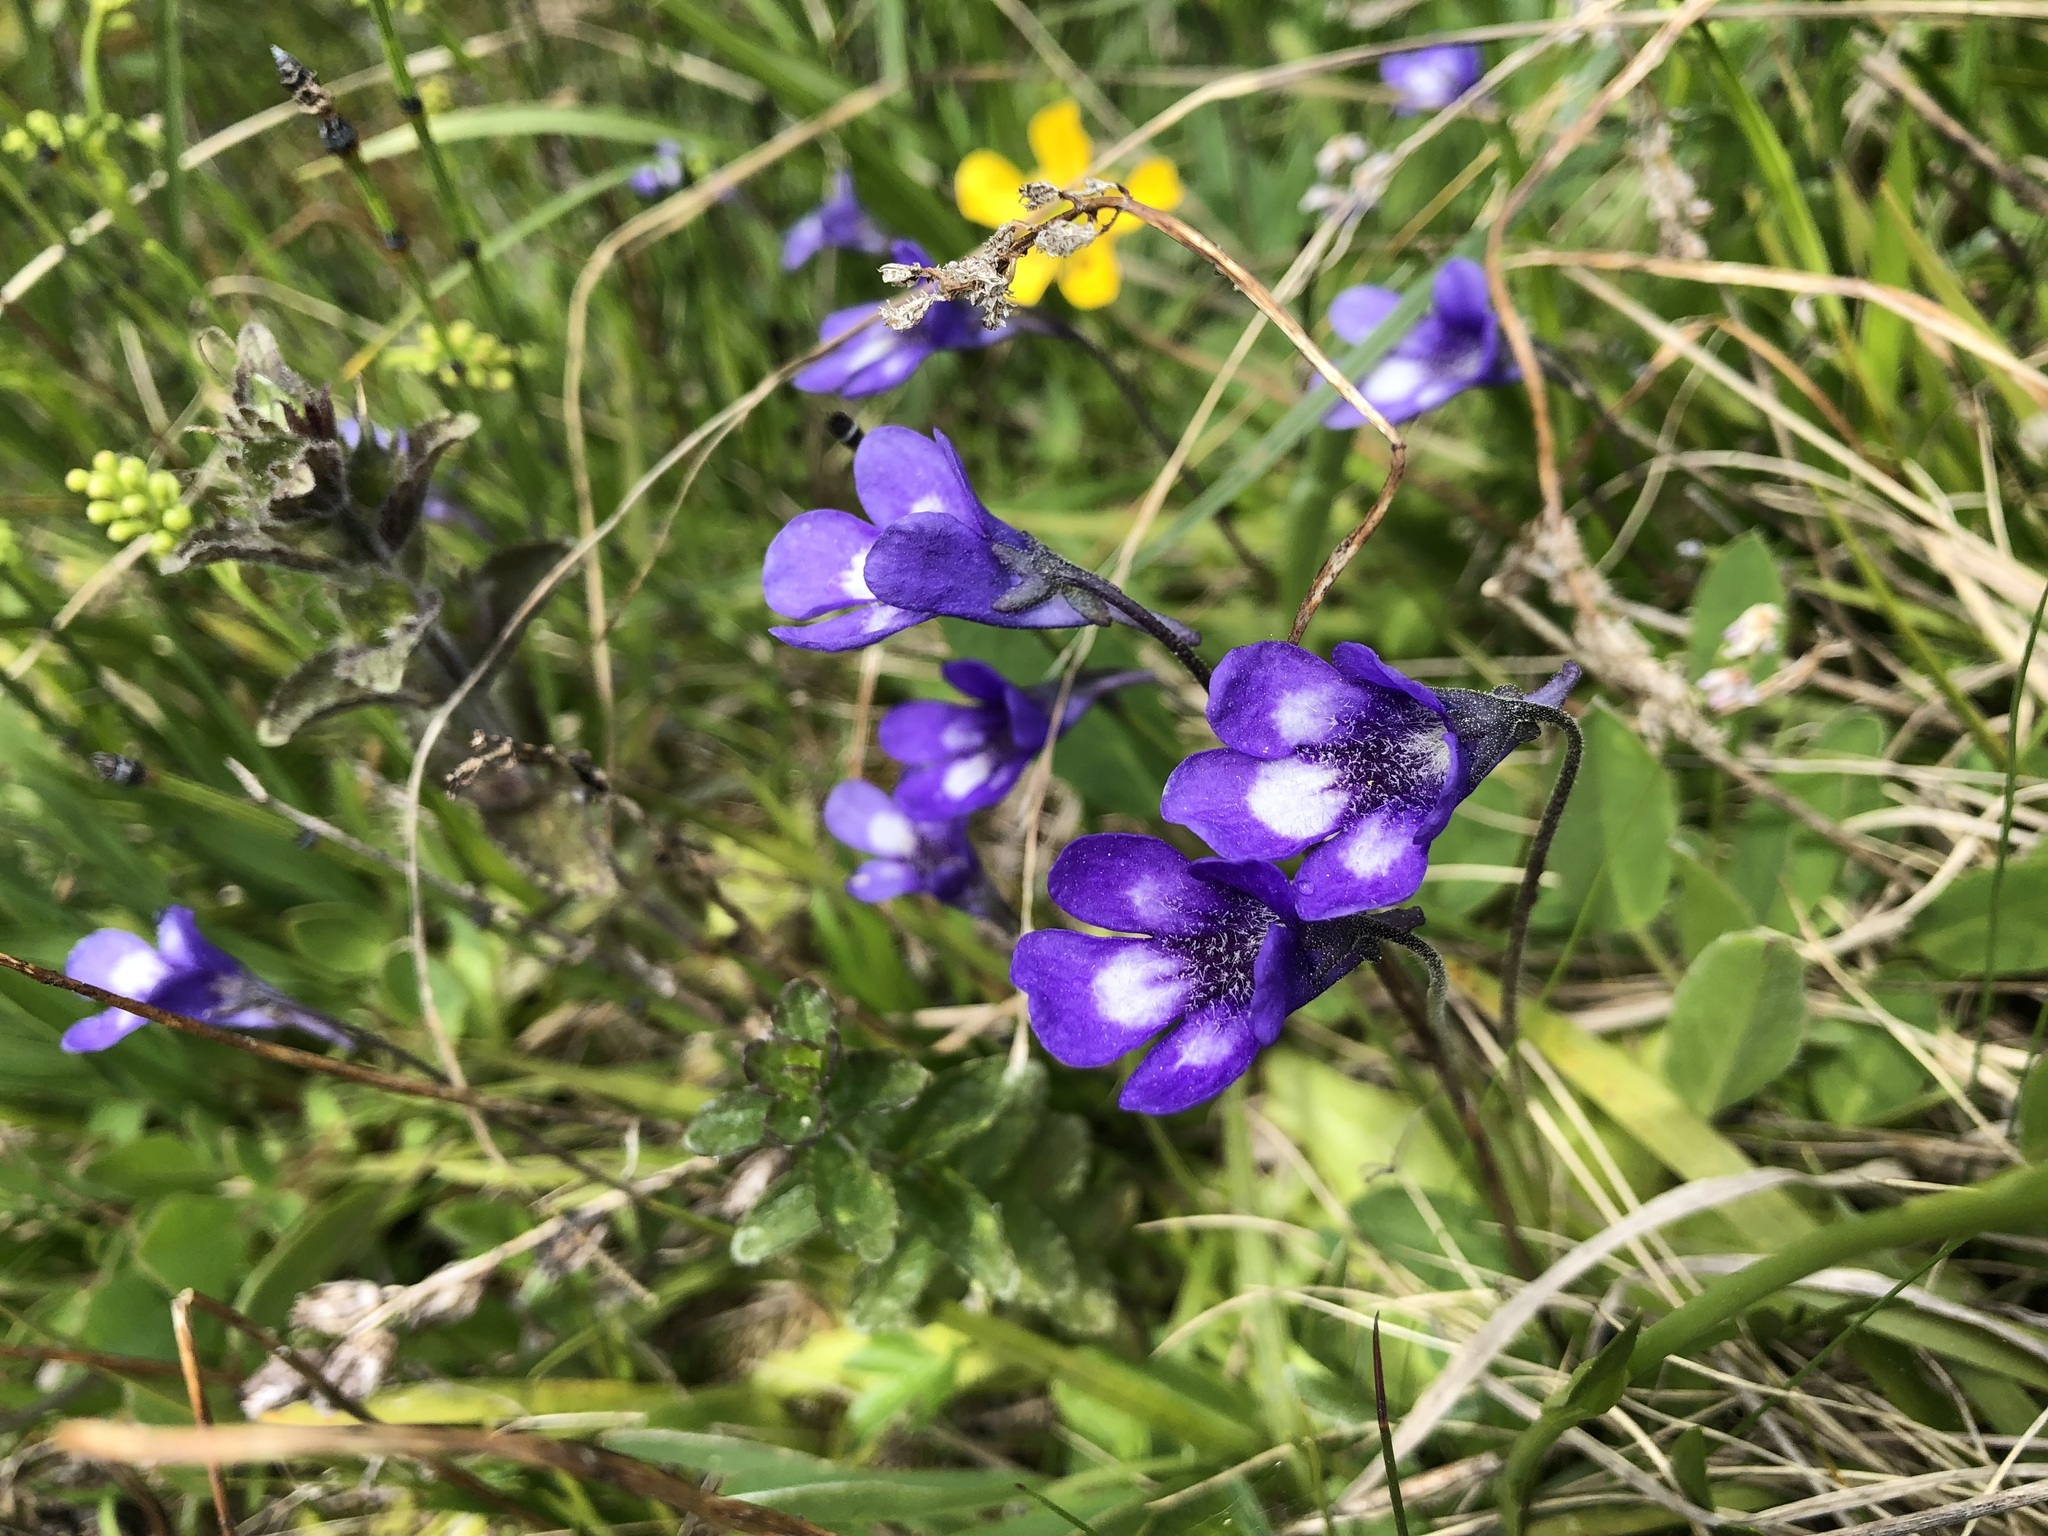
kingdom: Plantae
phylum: Tracheophyta
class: Magnoliopsida
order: Lamiales
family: Lentibulariaceae
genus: Pinguicula
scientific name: Pinguicula leptoceras
